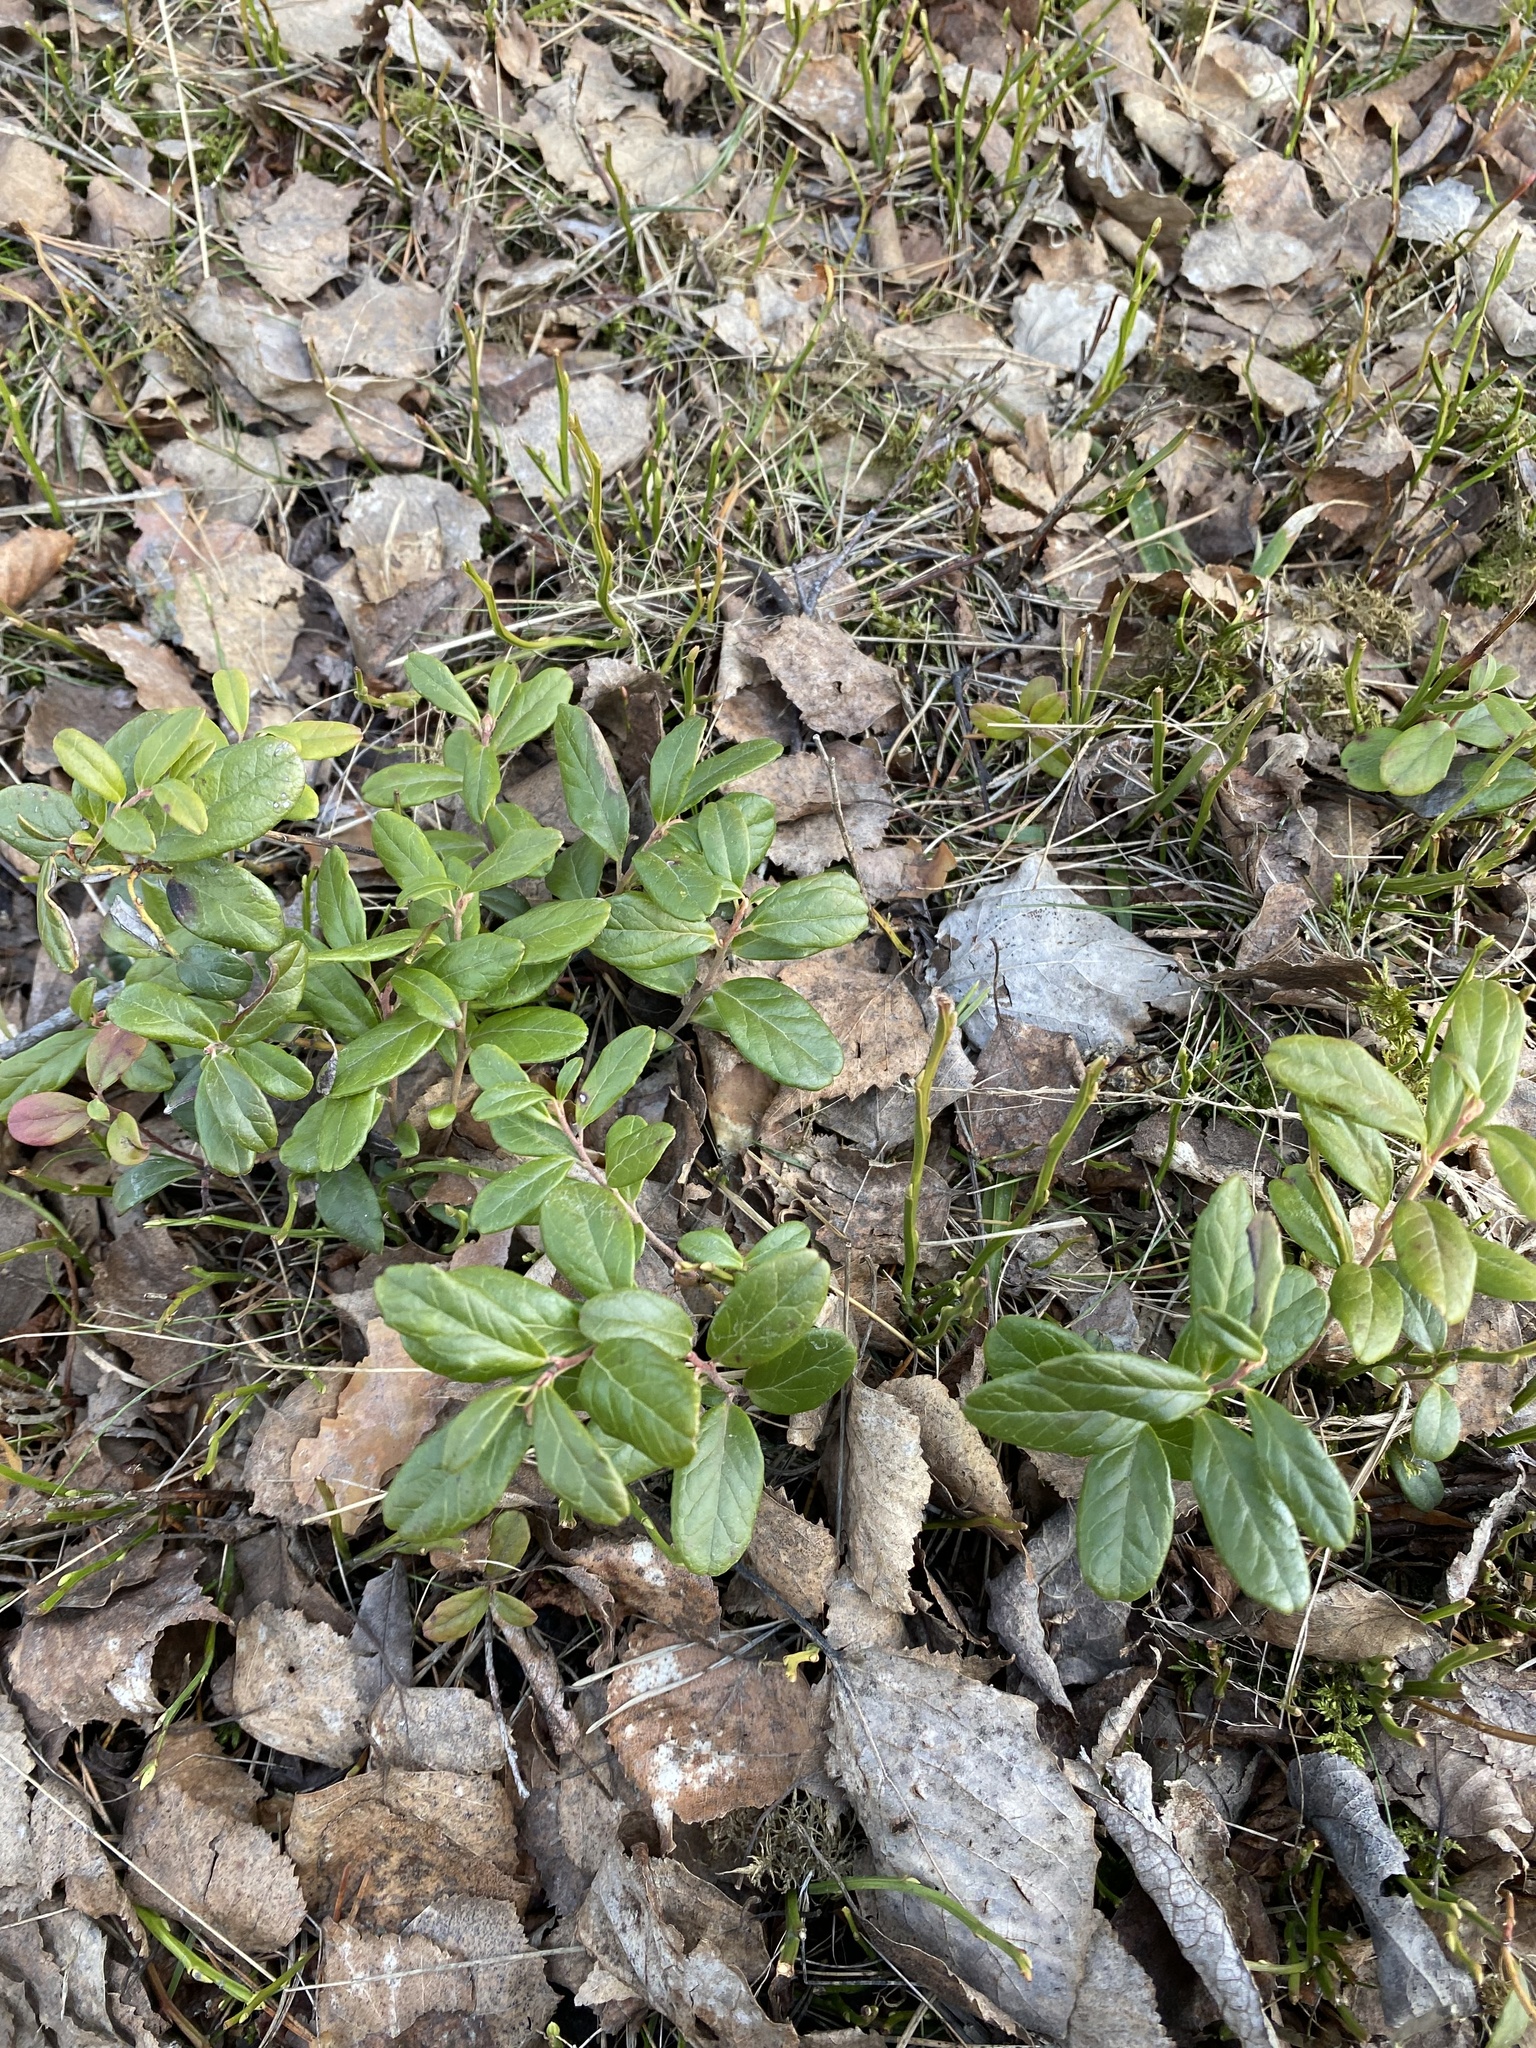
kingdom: Plantae
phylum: Tracheophyta
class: Magnoliopsida
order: Ericales
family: Ericaceae
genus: Vaccinium
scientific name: Vaccinium vitis-idaea
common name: Cowberry
